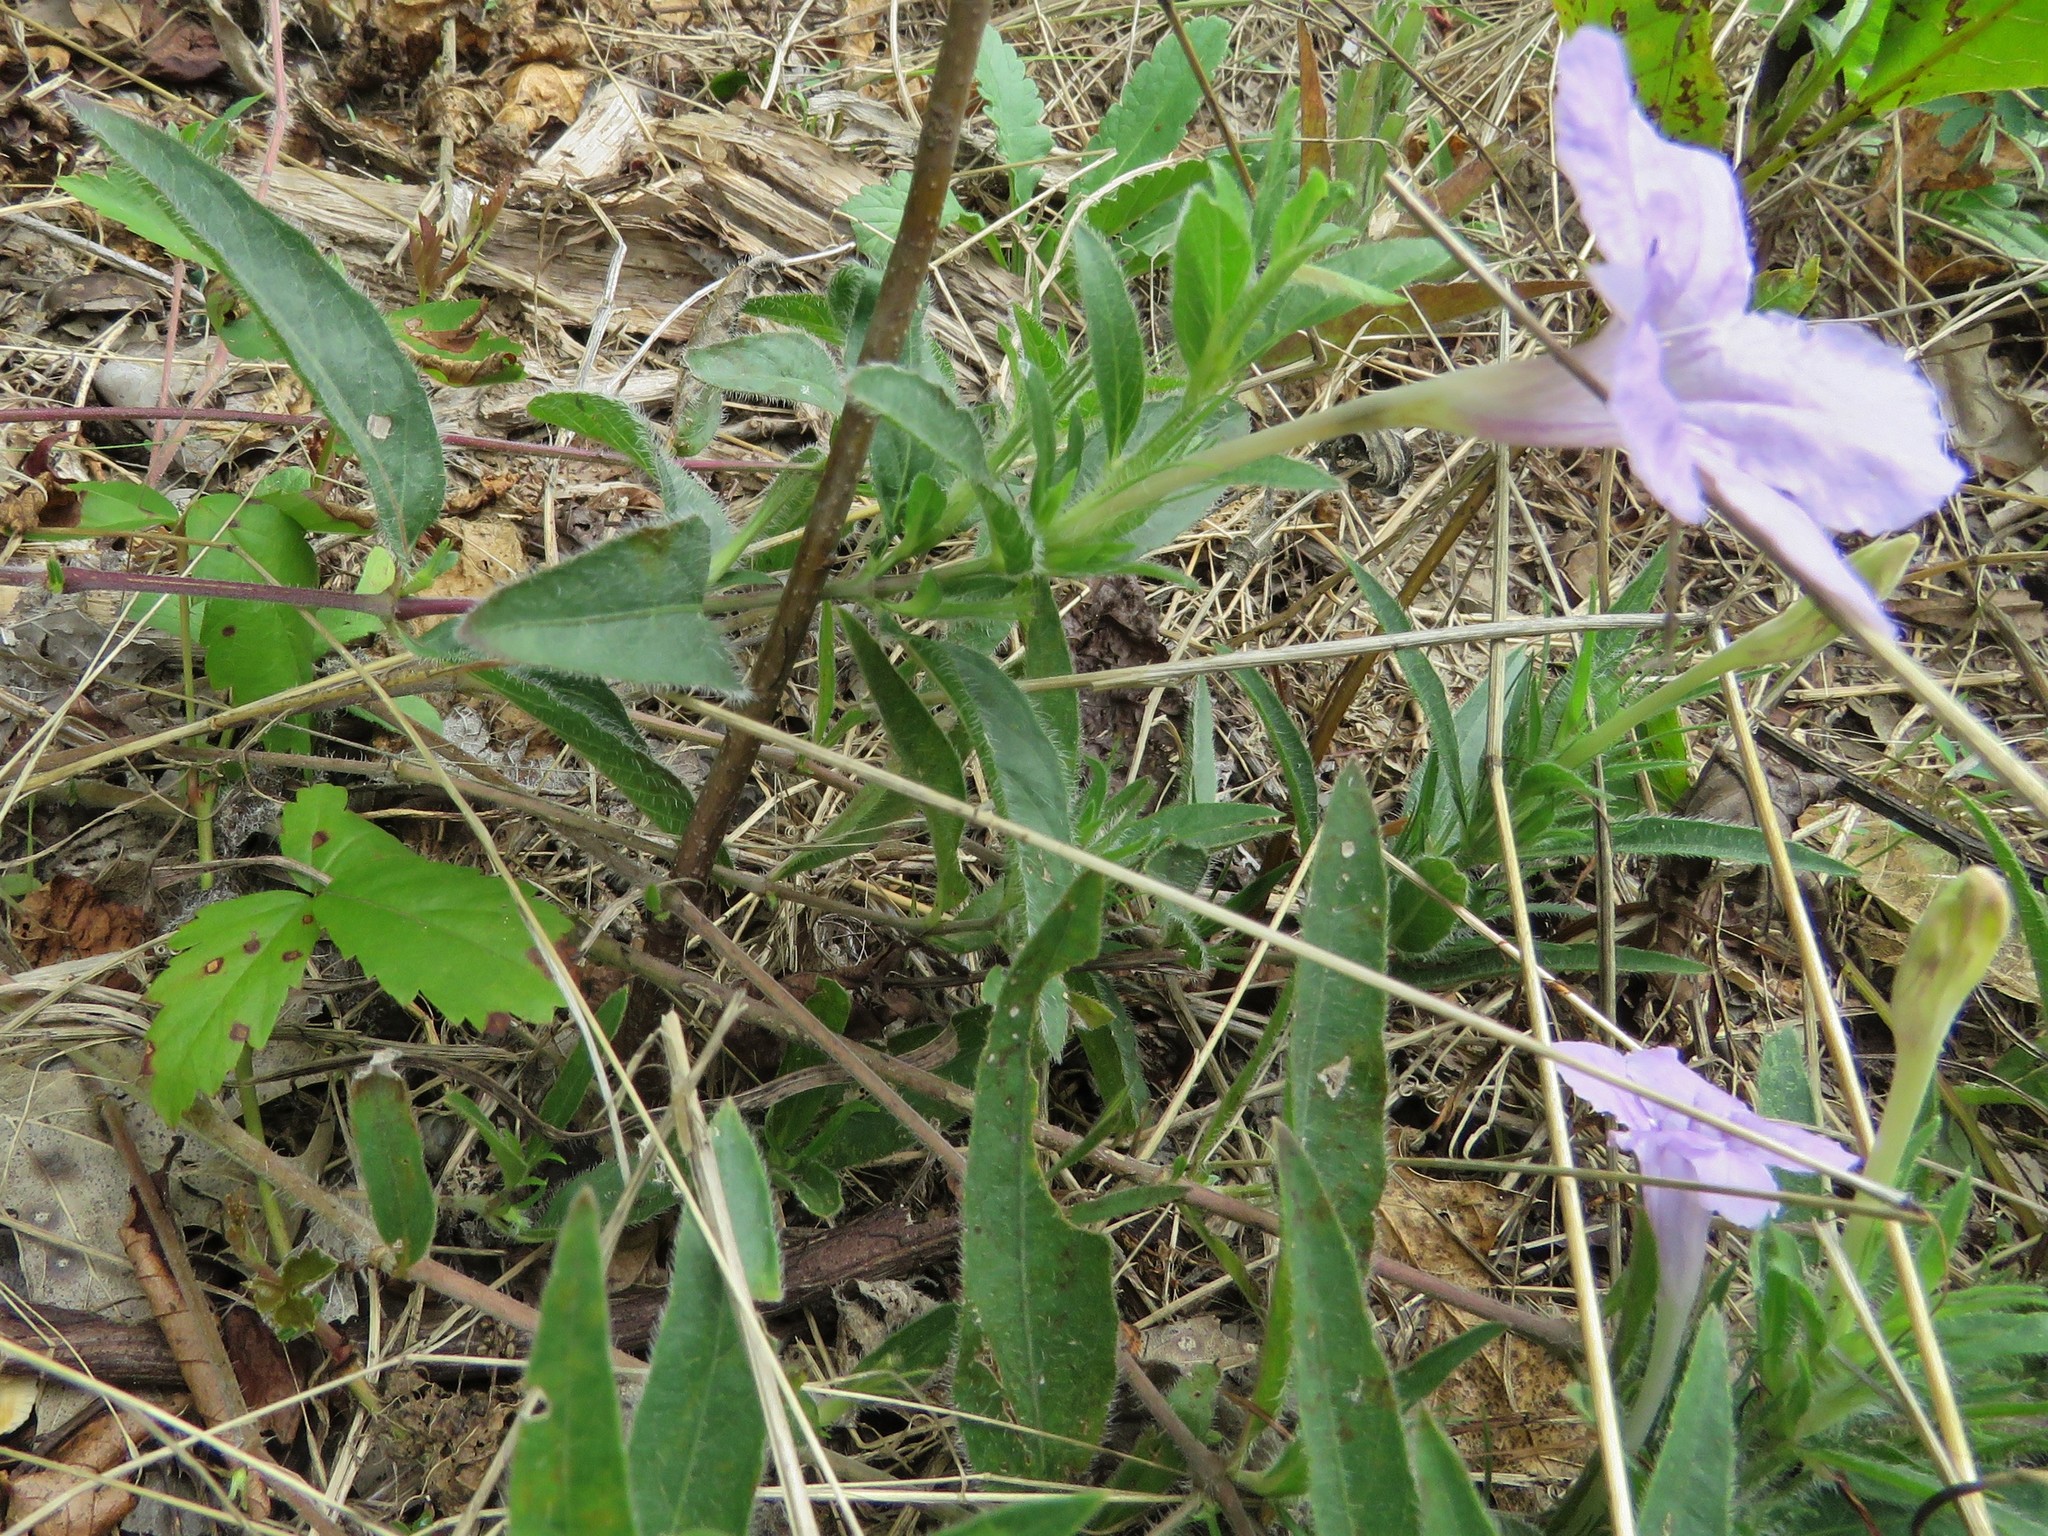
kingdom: Plantae
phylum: Tracheophyta
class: Magnoliopsida
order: Lamiales
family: Acanthaceae
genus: Ruellia
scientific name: Ruellia humilis
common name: Fringe-leaf ruellia
